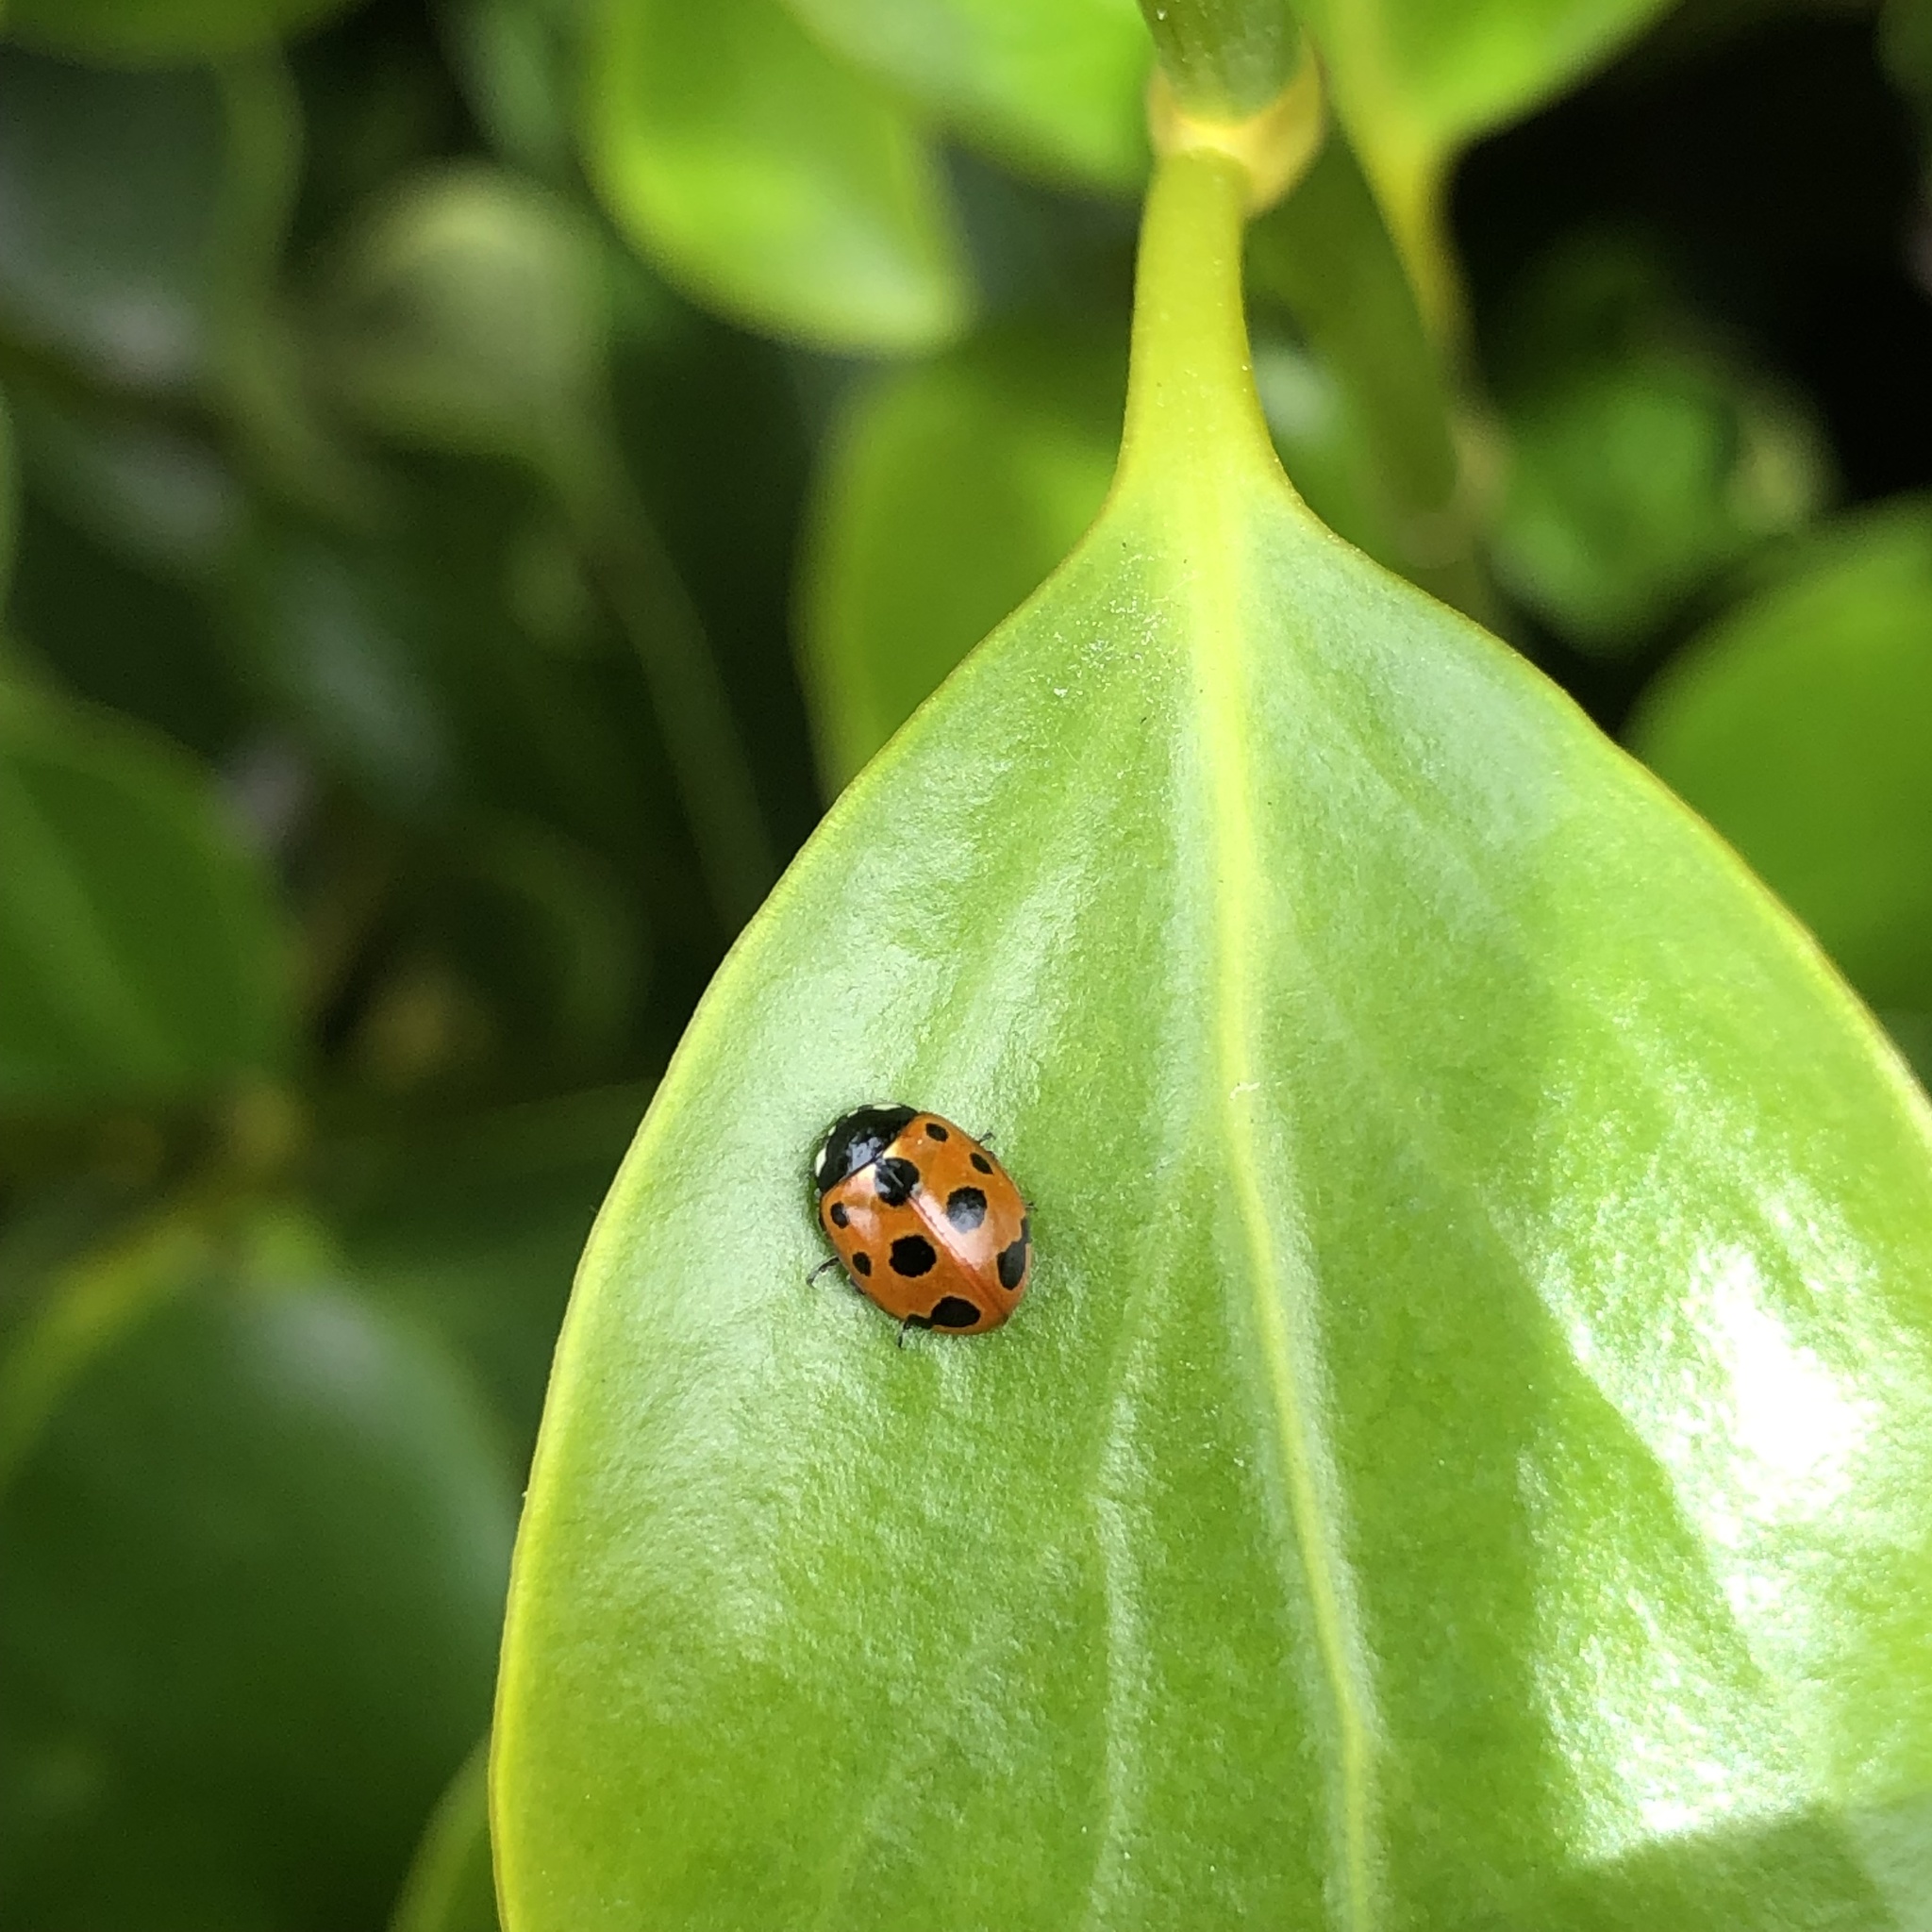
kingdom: Animalia
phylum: Arthropoda
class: Insecta
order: Coleoptera
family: Coccinellidae
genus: Coccinella
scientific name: Coccinella undecimpunctata
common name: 11-spot ladybird
